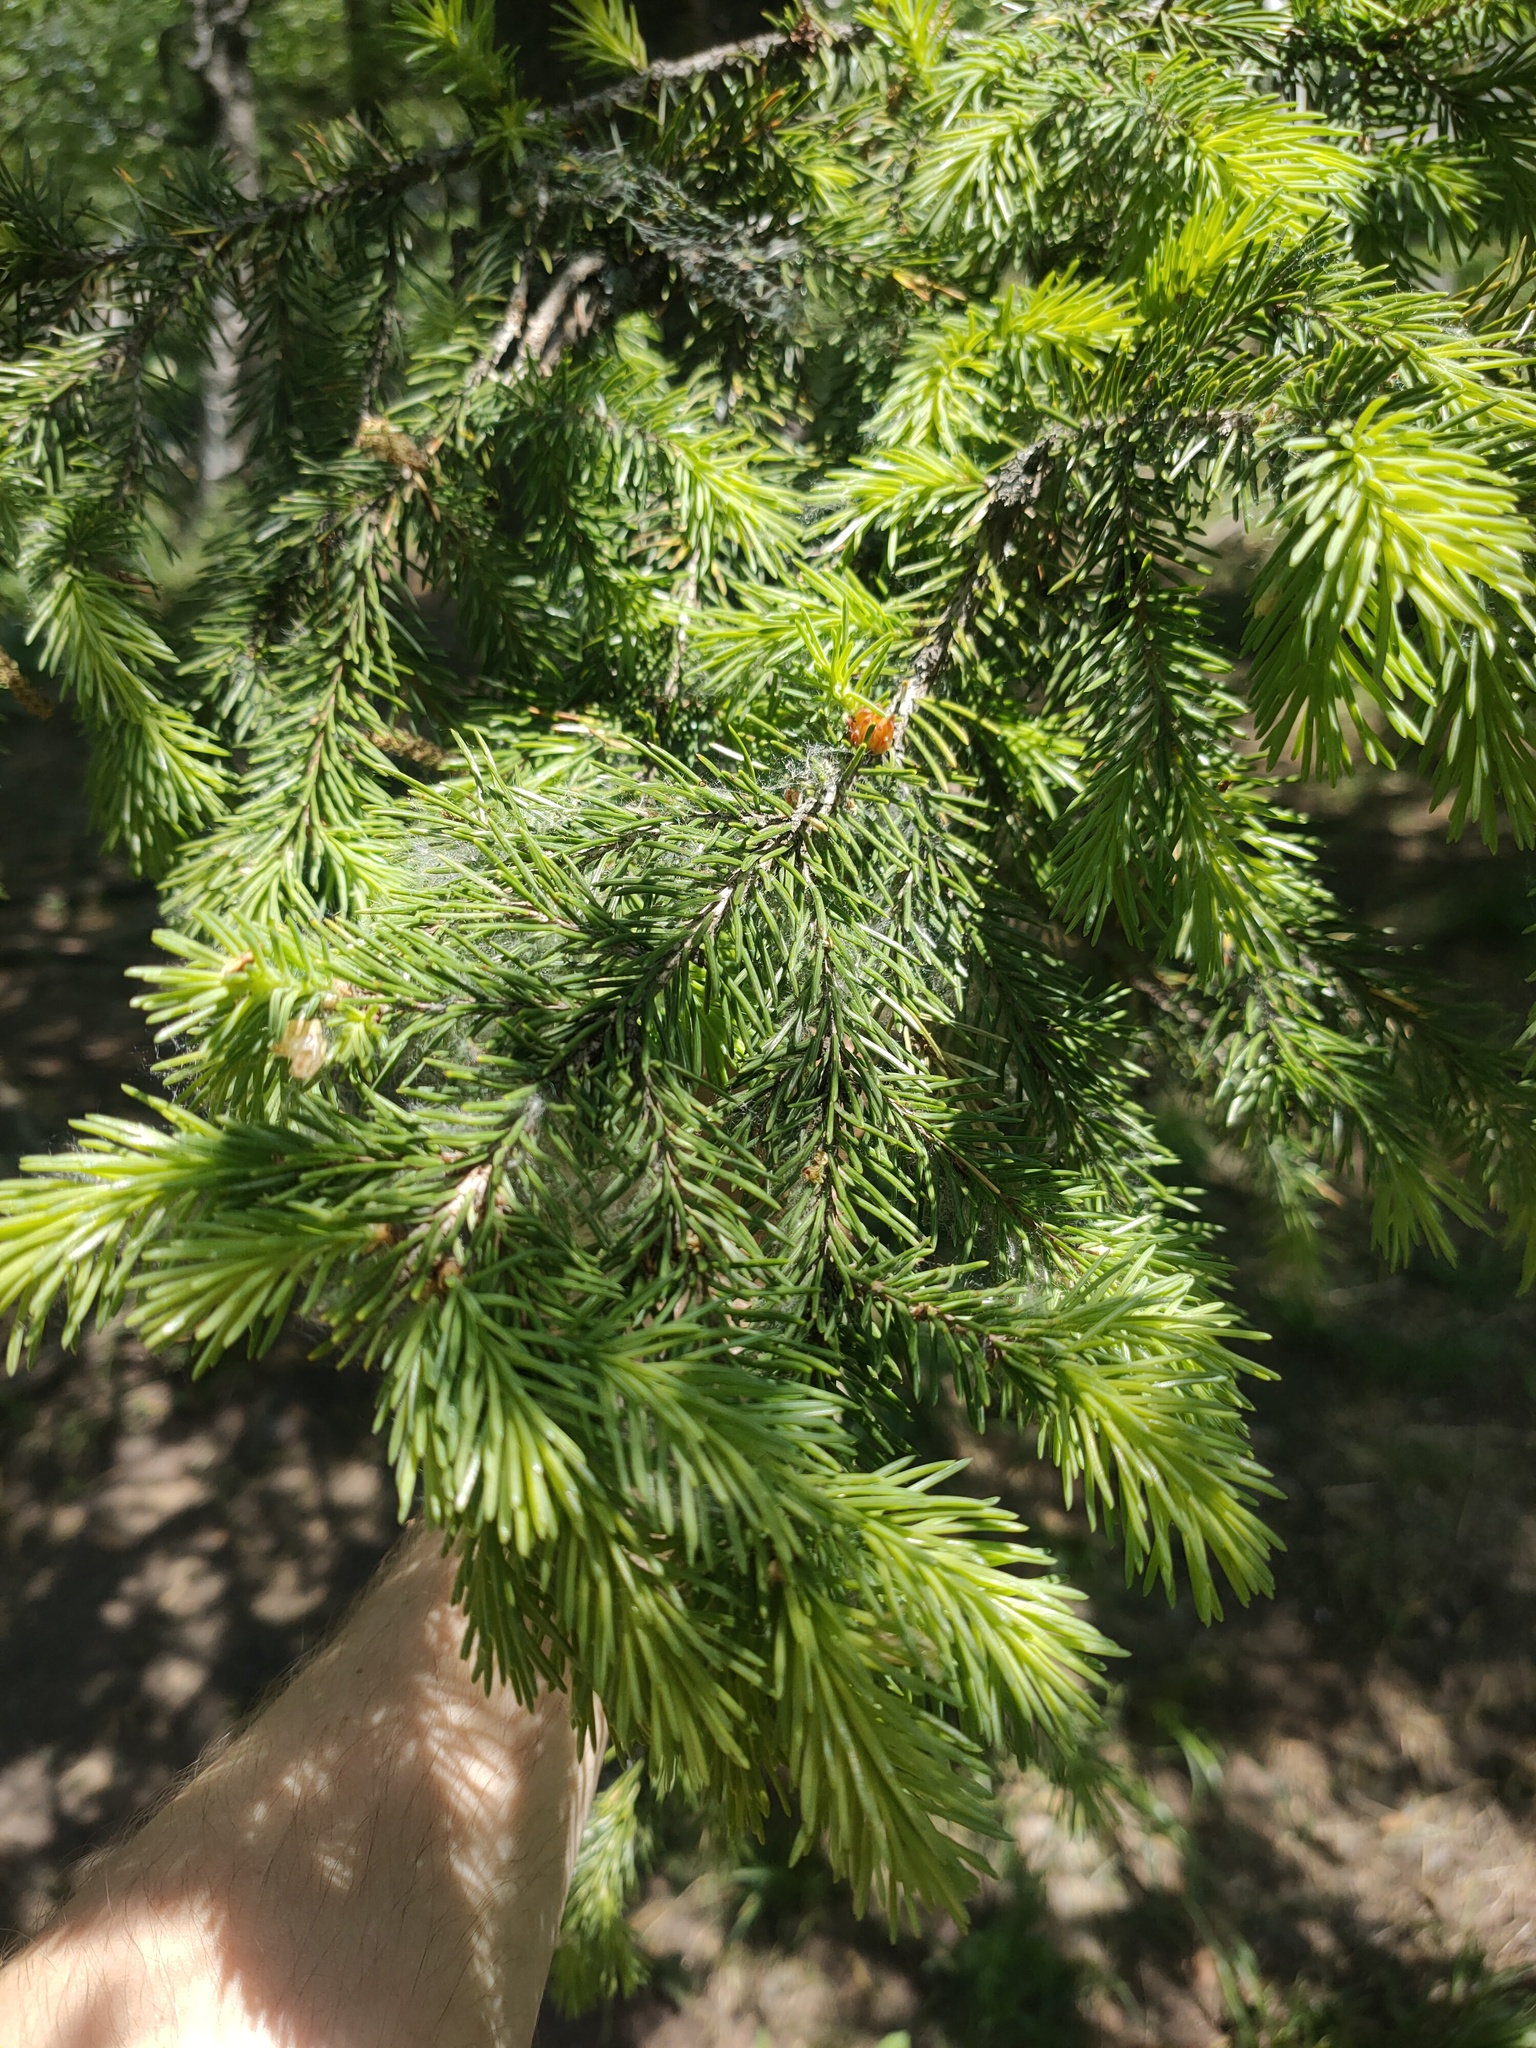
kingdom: Plantae
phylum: Tracheophyta
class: Pinopsida
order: Pinales
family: Pinaceae
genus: Picea
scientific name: Picea
